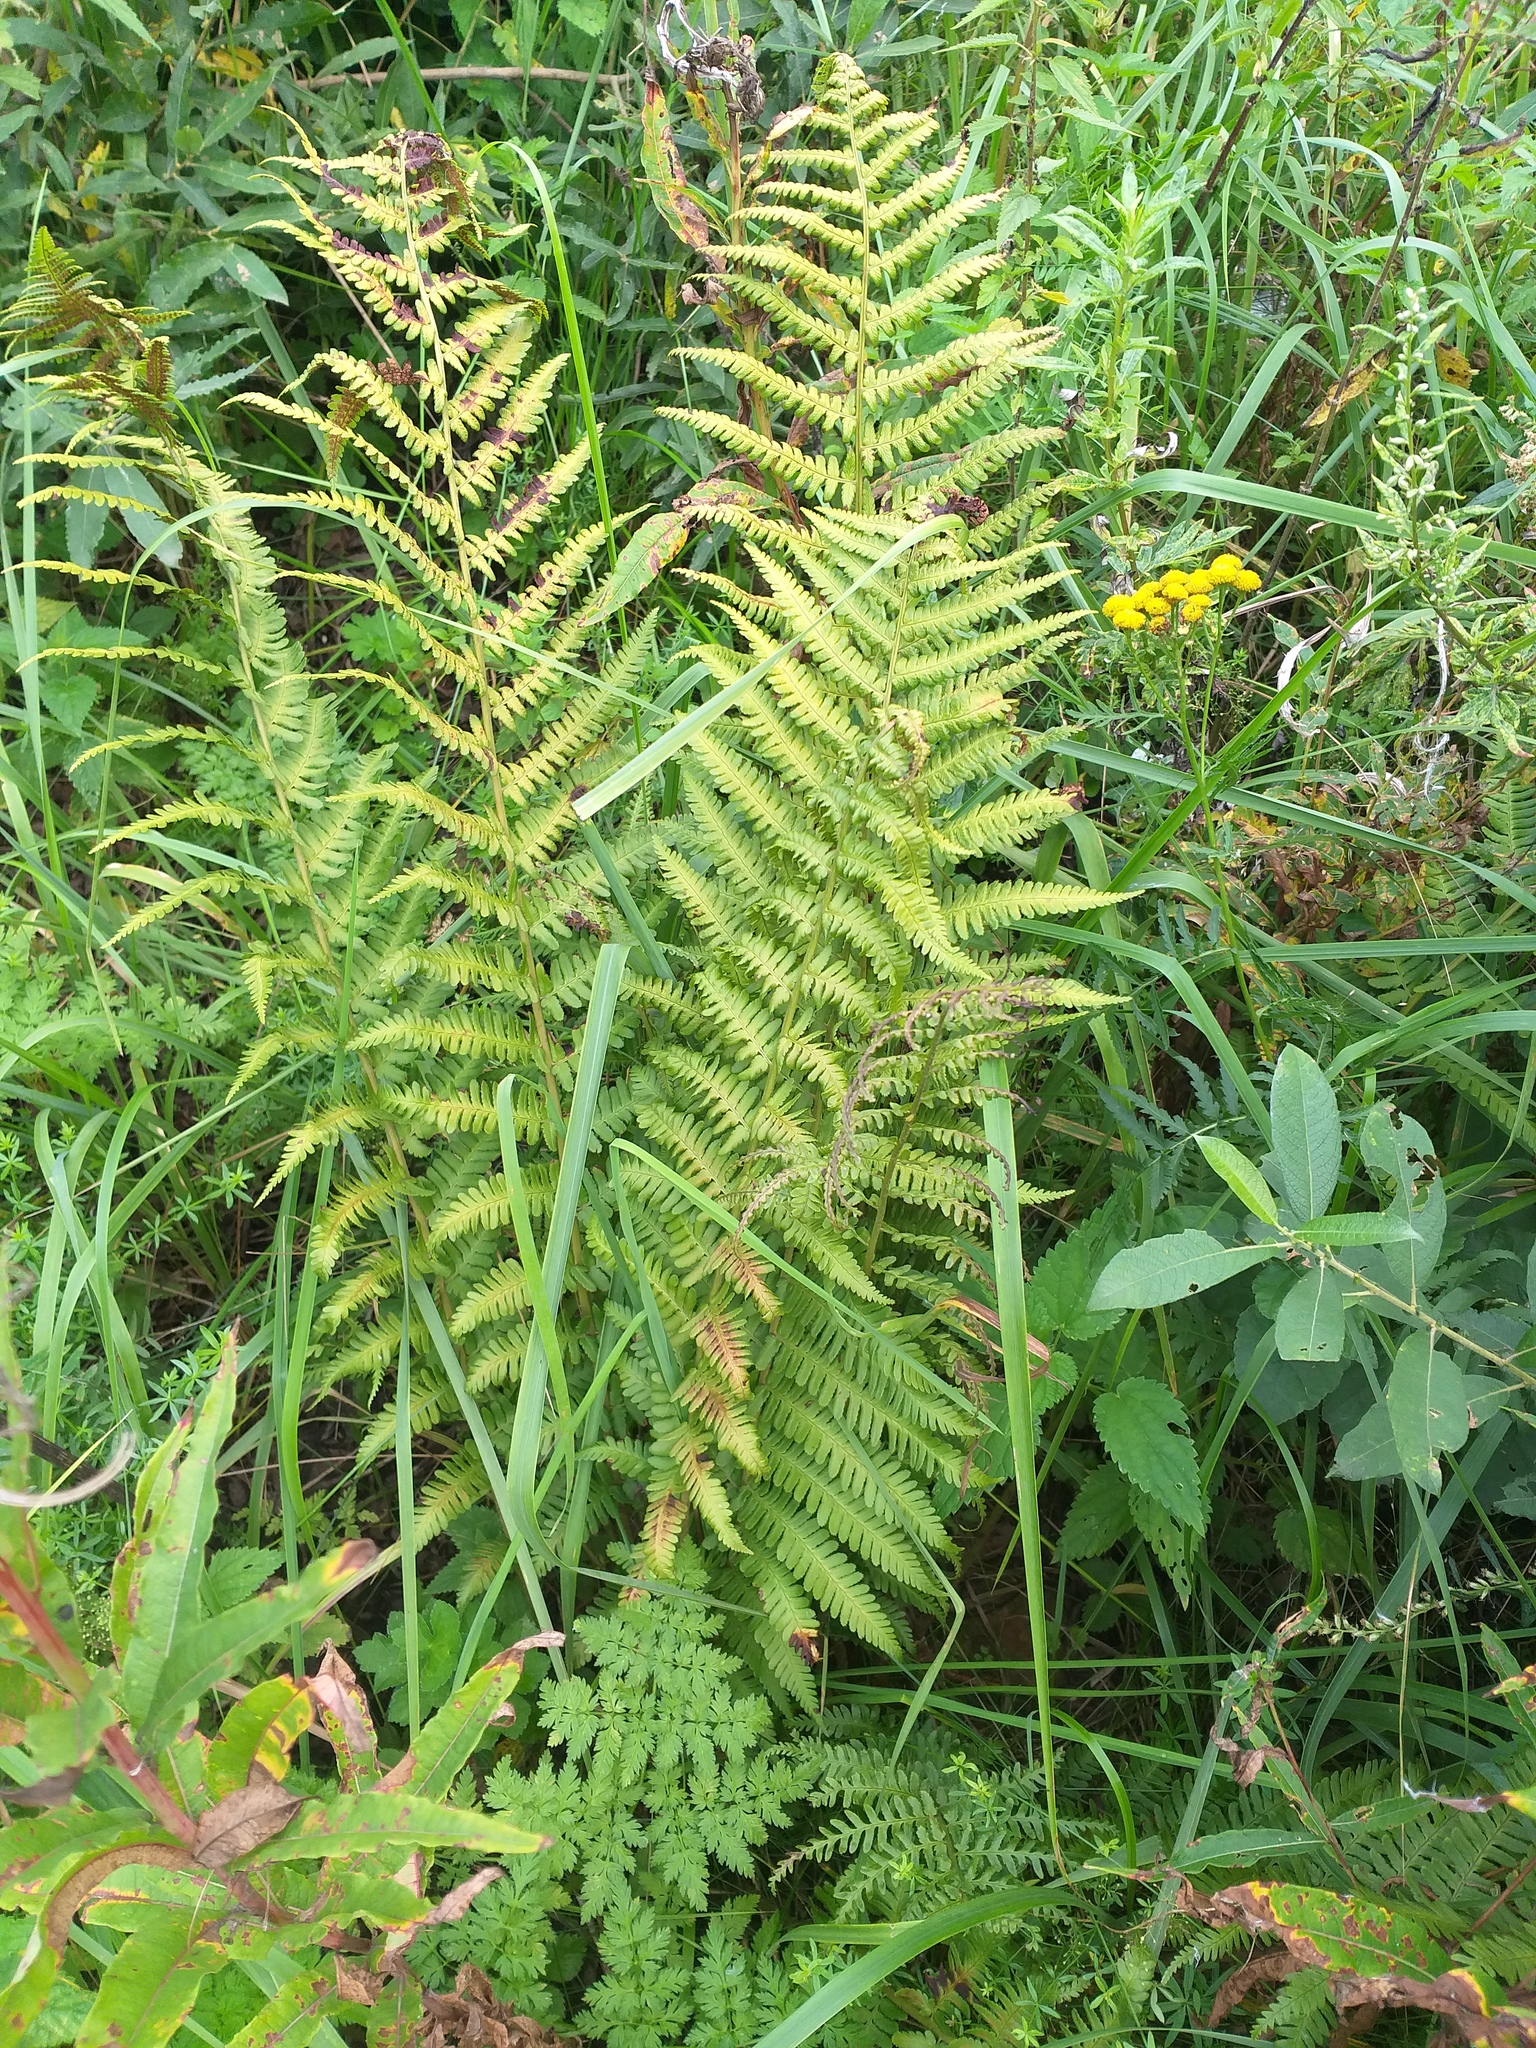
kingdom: Plantae
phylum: Tracheophyta
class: Polypodiopsida
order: Polypodiales
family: Dryopteridaceae
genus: Dryopteris
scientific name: Dryopteris filix-mas
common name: Male fern
